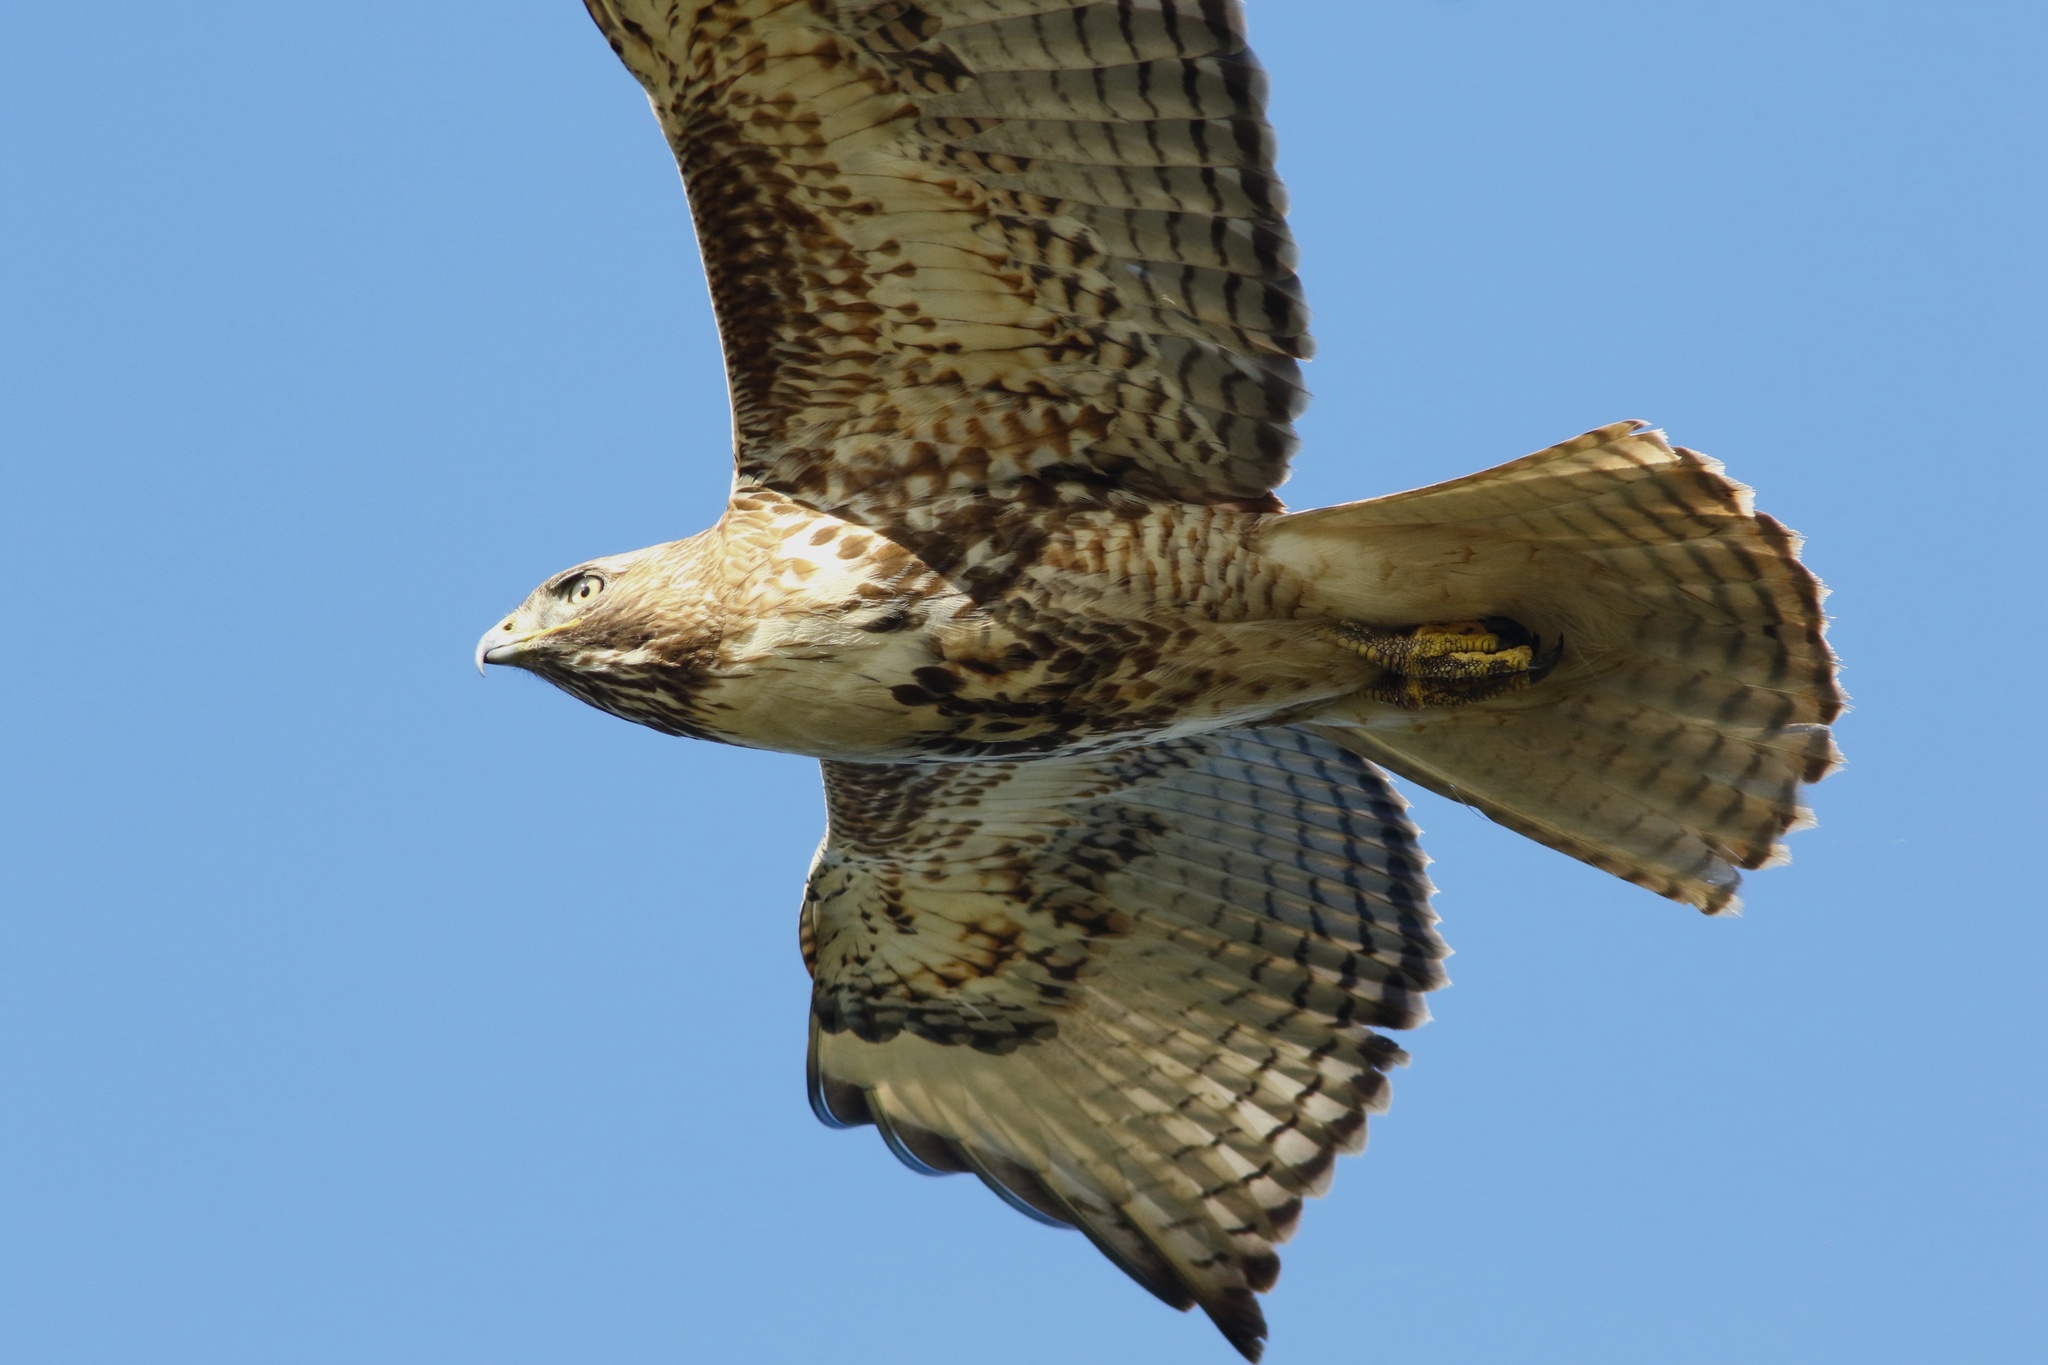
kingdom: Animalia
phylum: Chordata
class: Aves
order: Accipitriformes
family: Accipitridae
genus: Buteo
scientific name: Buteo jamaicensis
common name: Red-tailed hawk
